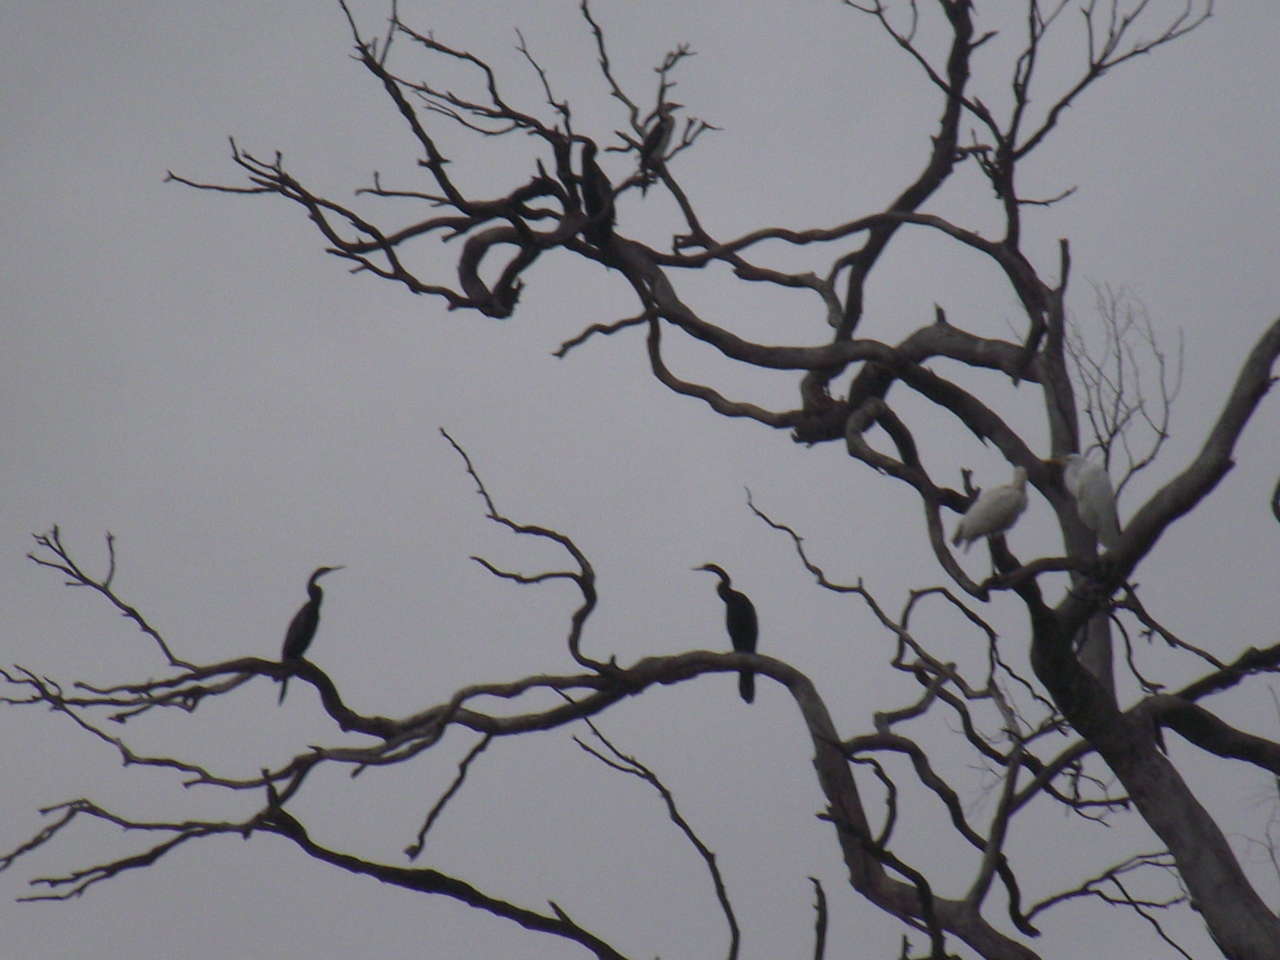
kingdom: Animalia
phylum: Chordata
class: Aves
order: Suliformes
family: Anhingidae
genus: Anhinga
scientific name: Anhinga novaehollandiae
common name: Australasian darter
